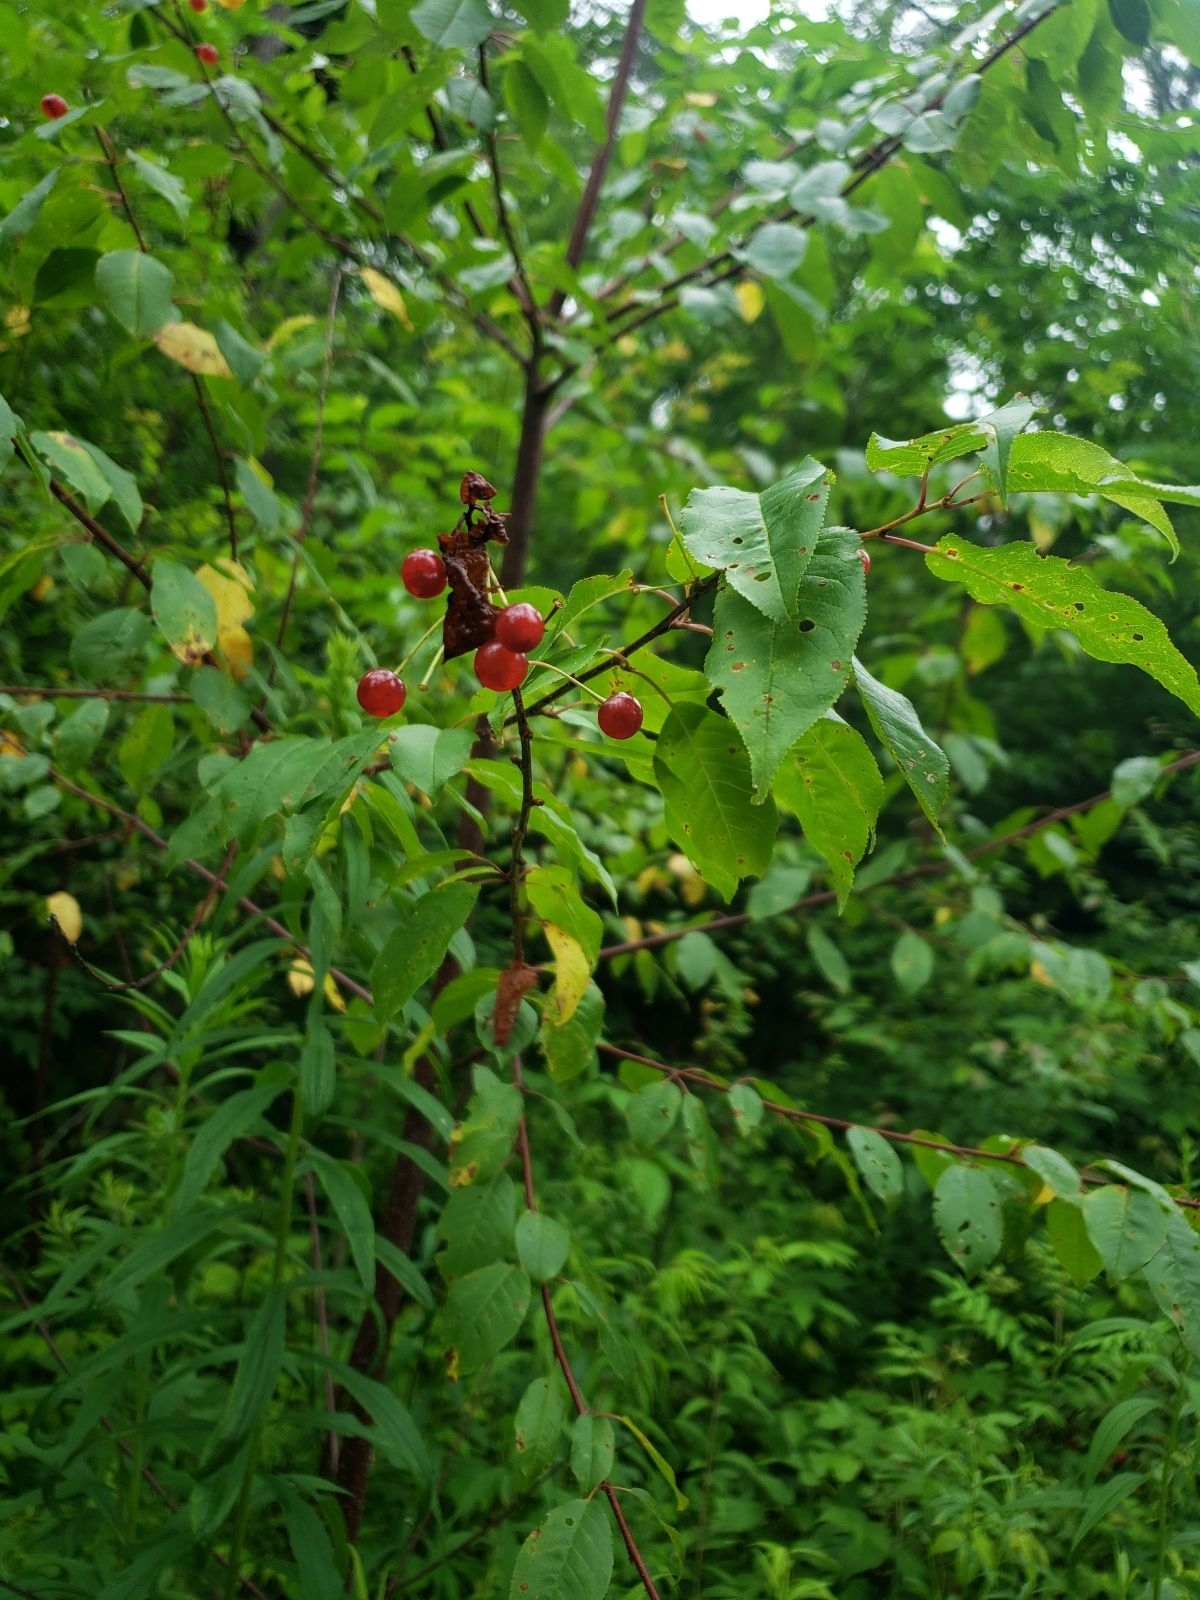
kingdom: Plantae
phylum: Tracheophyta
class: Magnoliopsida
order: Rosales
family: Rosaceae
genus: Prunus
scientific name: Prunus pensylvanica
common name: Pin cherry
